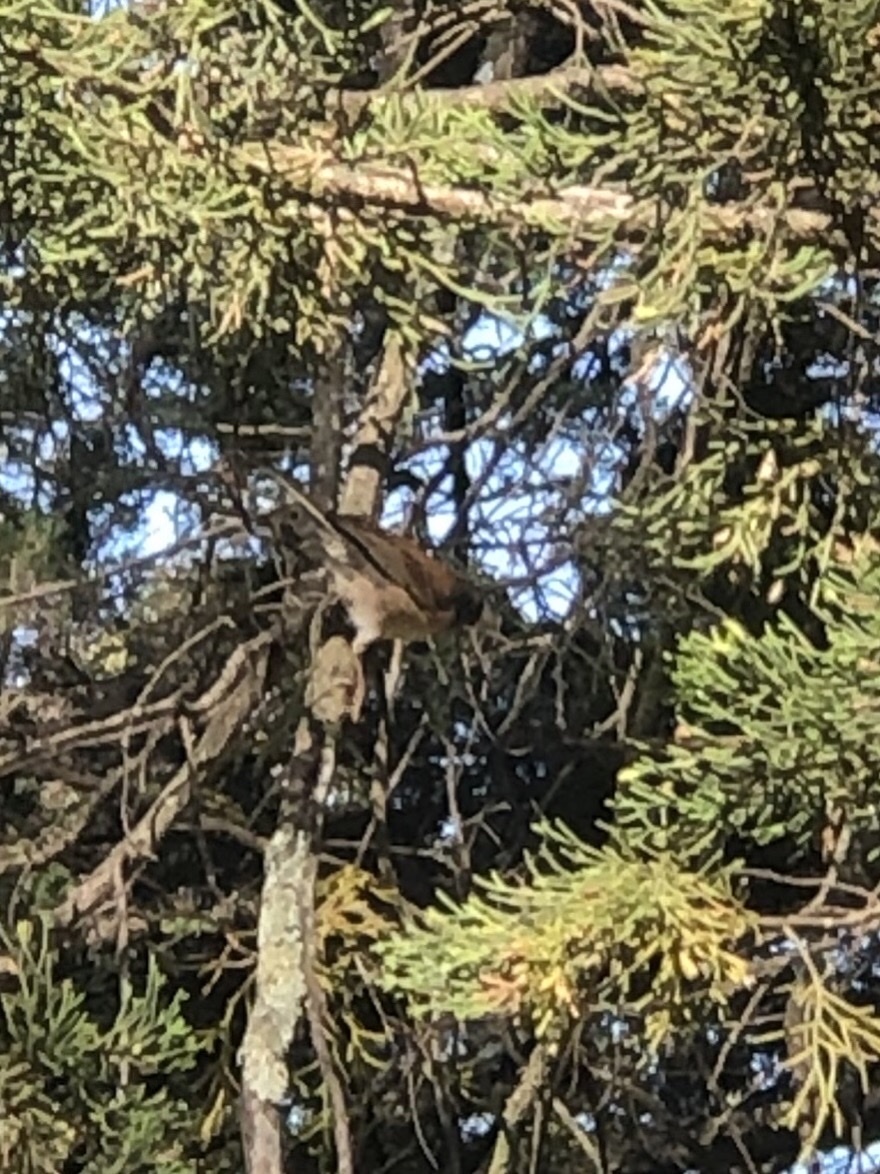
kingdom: Animalia
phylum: Chordata
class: Aves
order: Passeriformes
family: Passerellidae
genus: Junco
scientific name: Junco hyemalis
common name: Dark-eyed junco
